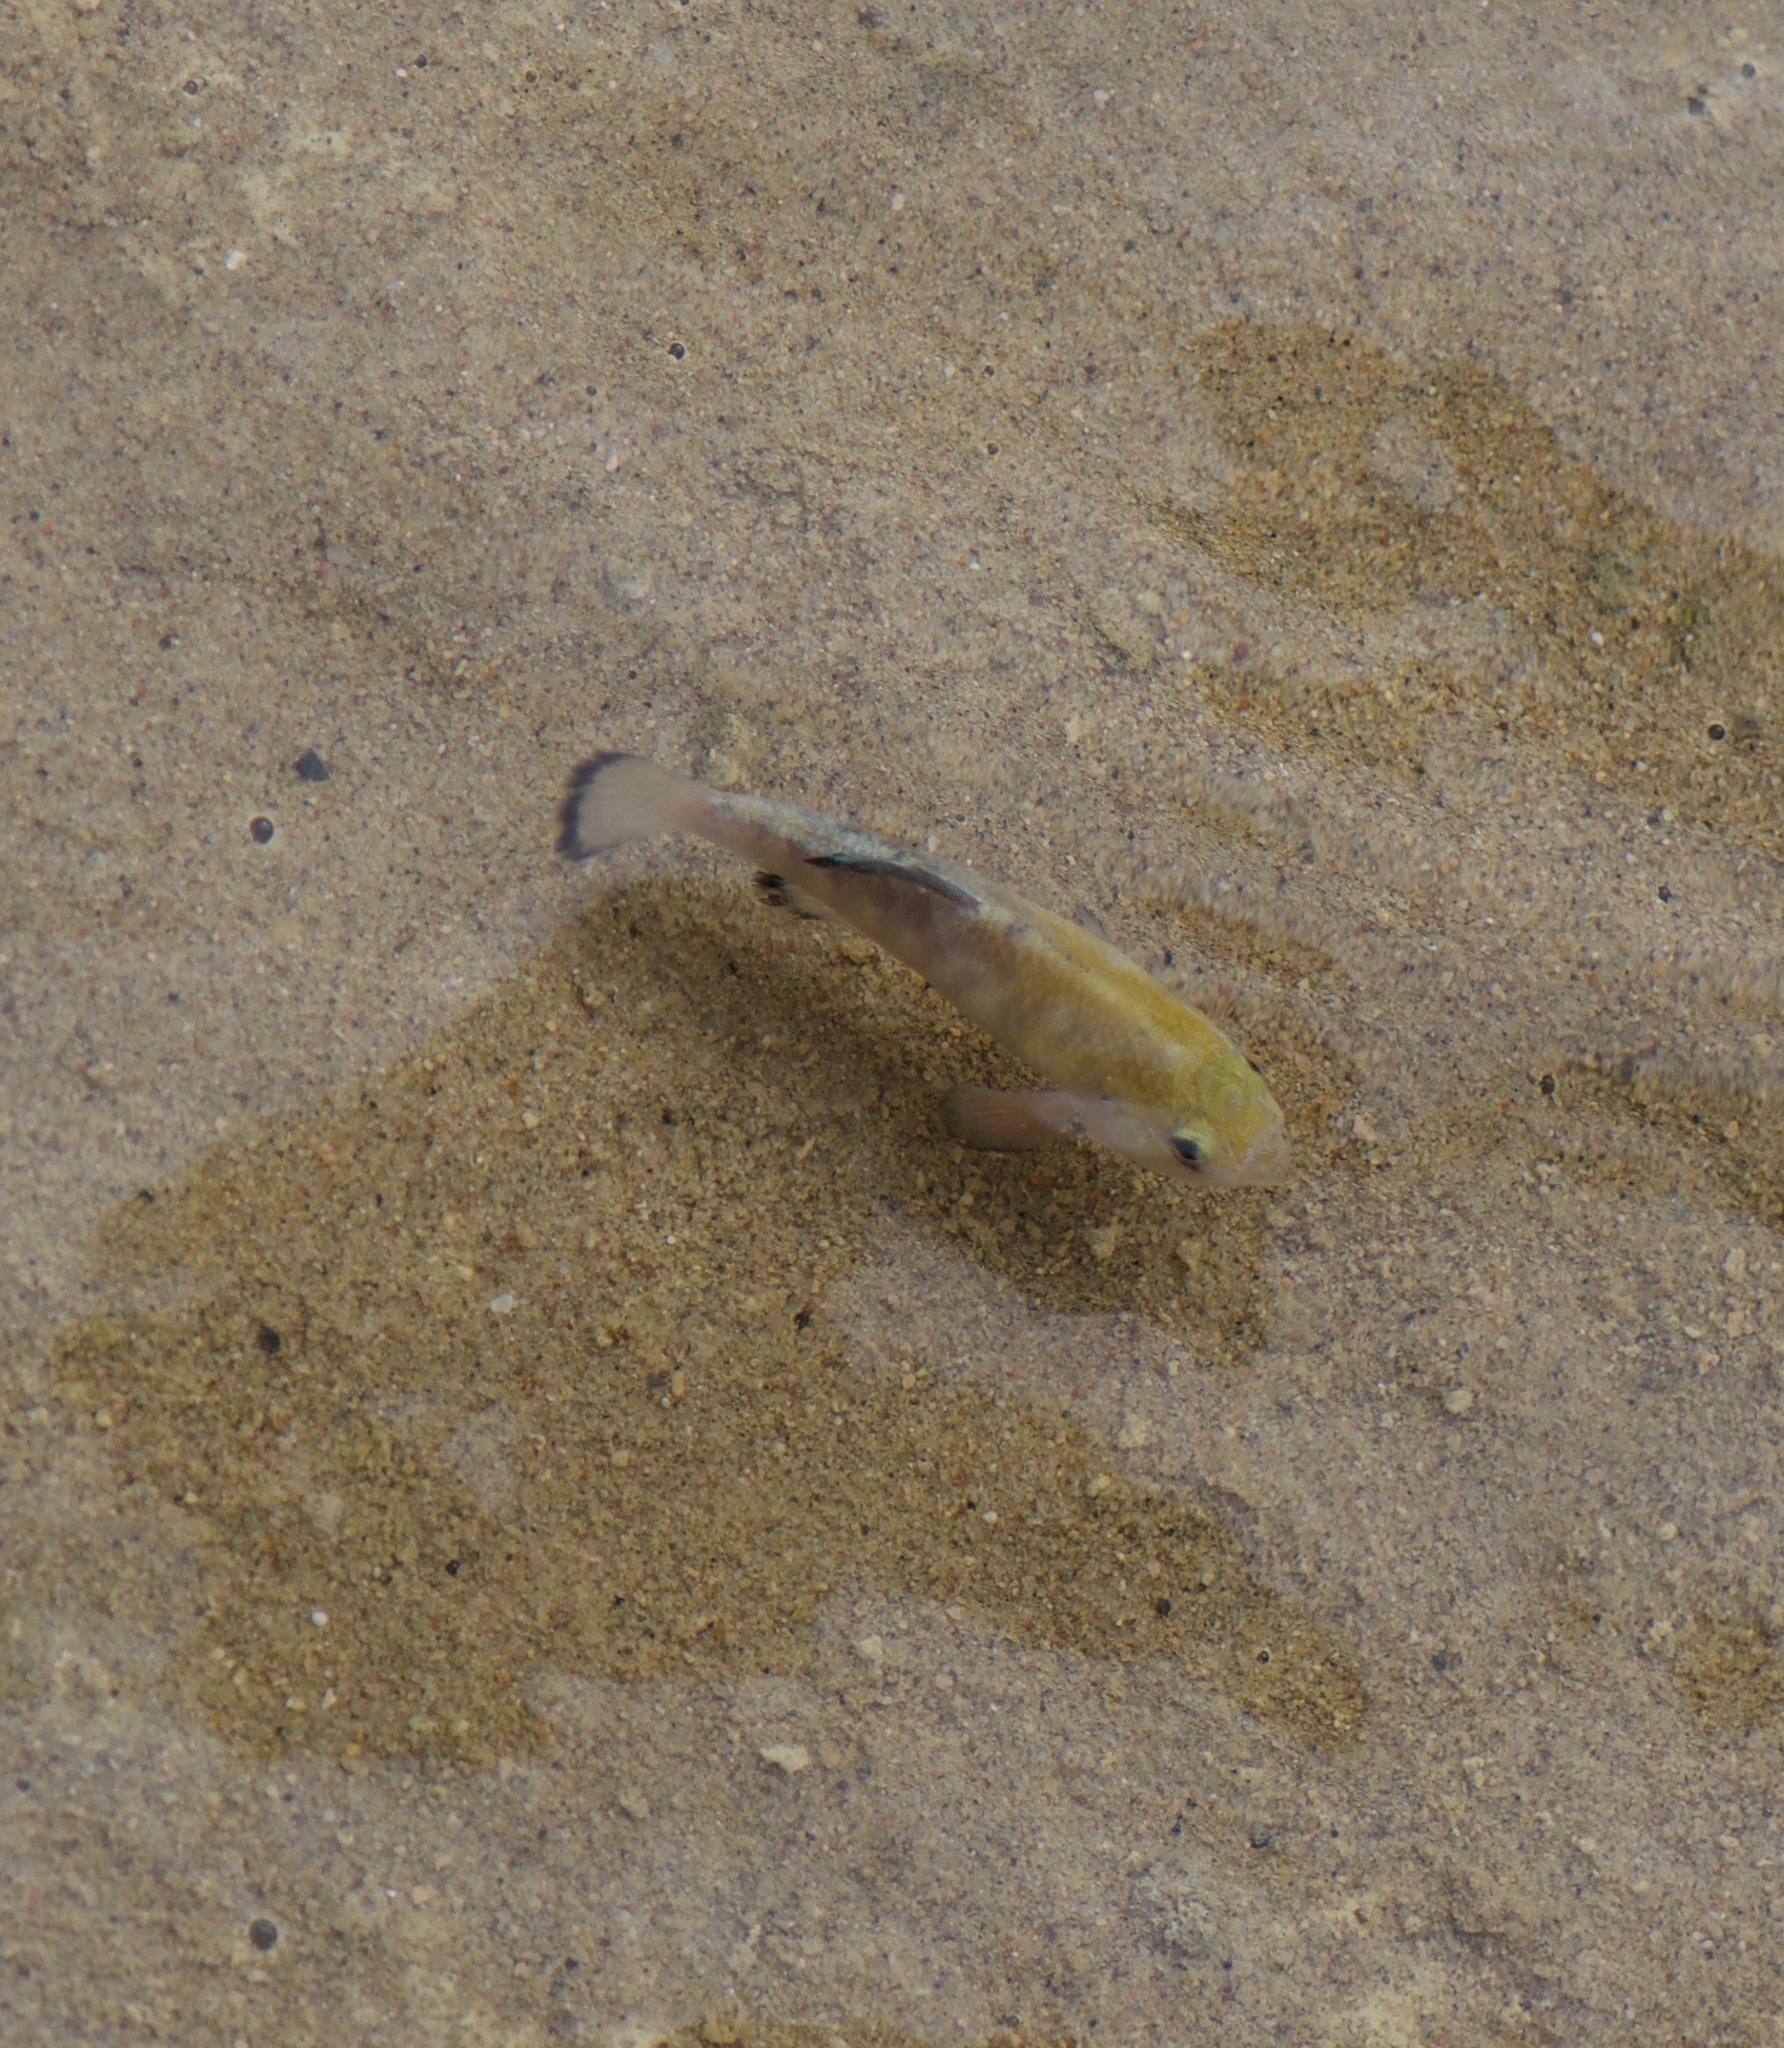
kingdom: Animalia
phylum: Chordata
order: Cyprinodontiformes
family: Cyprinodontidae
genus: Cyprinodon
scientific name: Cyprinodon salinus
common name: Cottonball marsh pupfish
